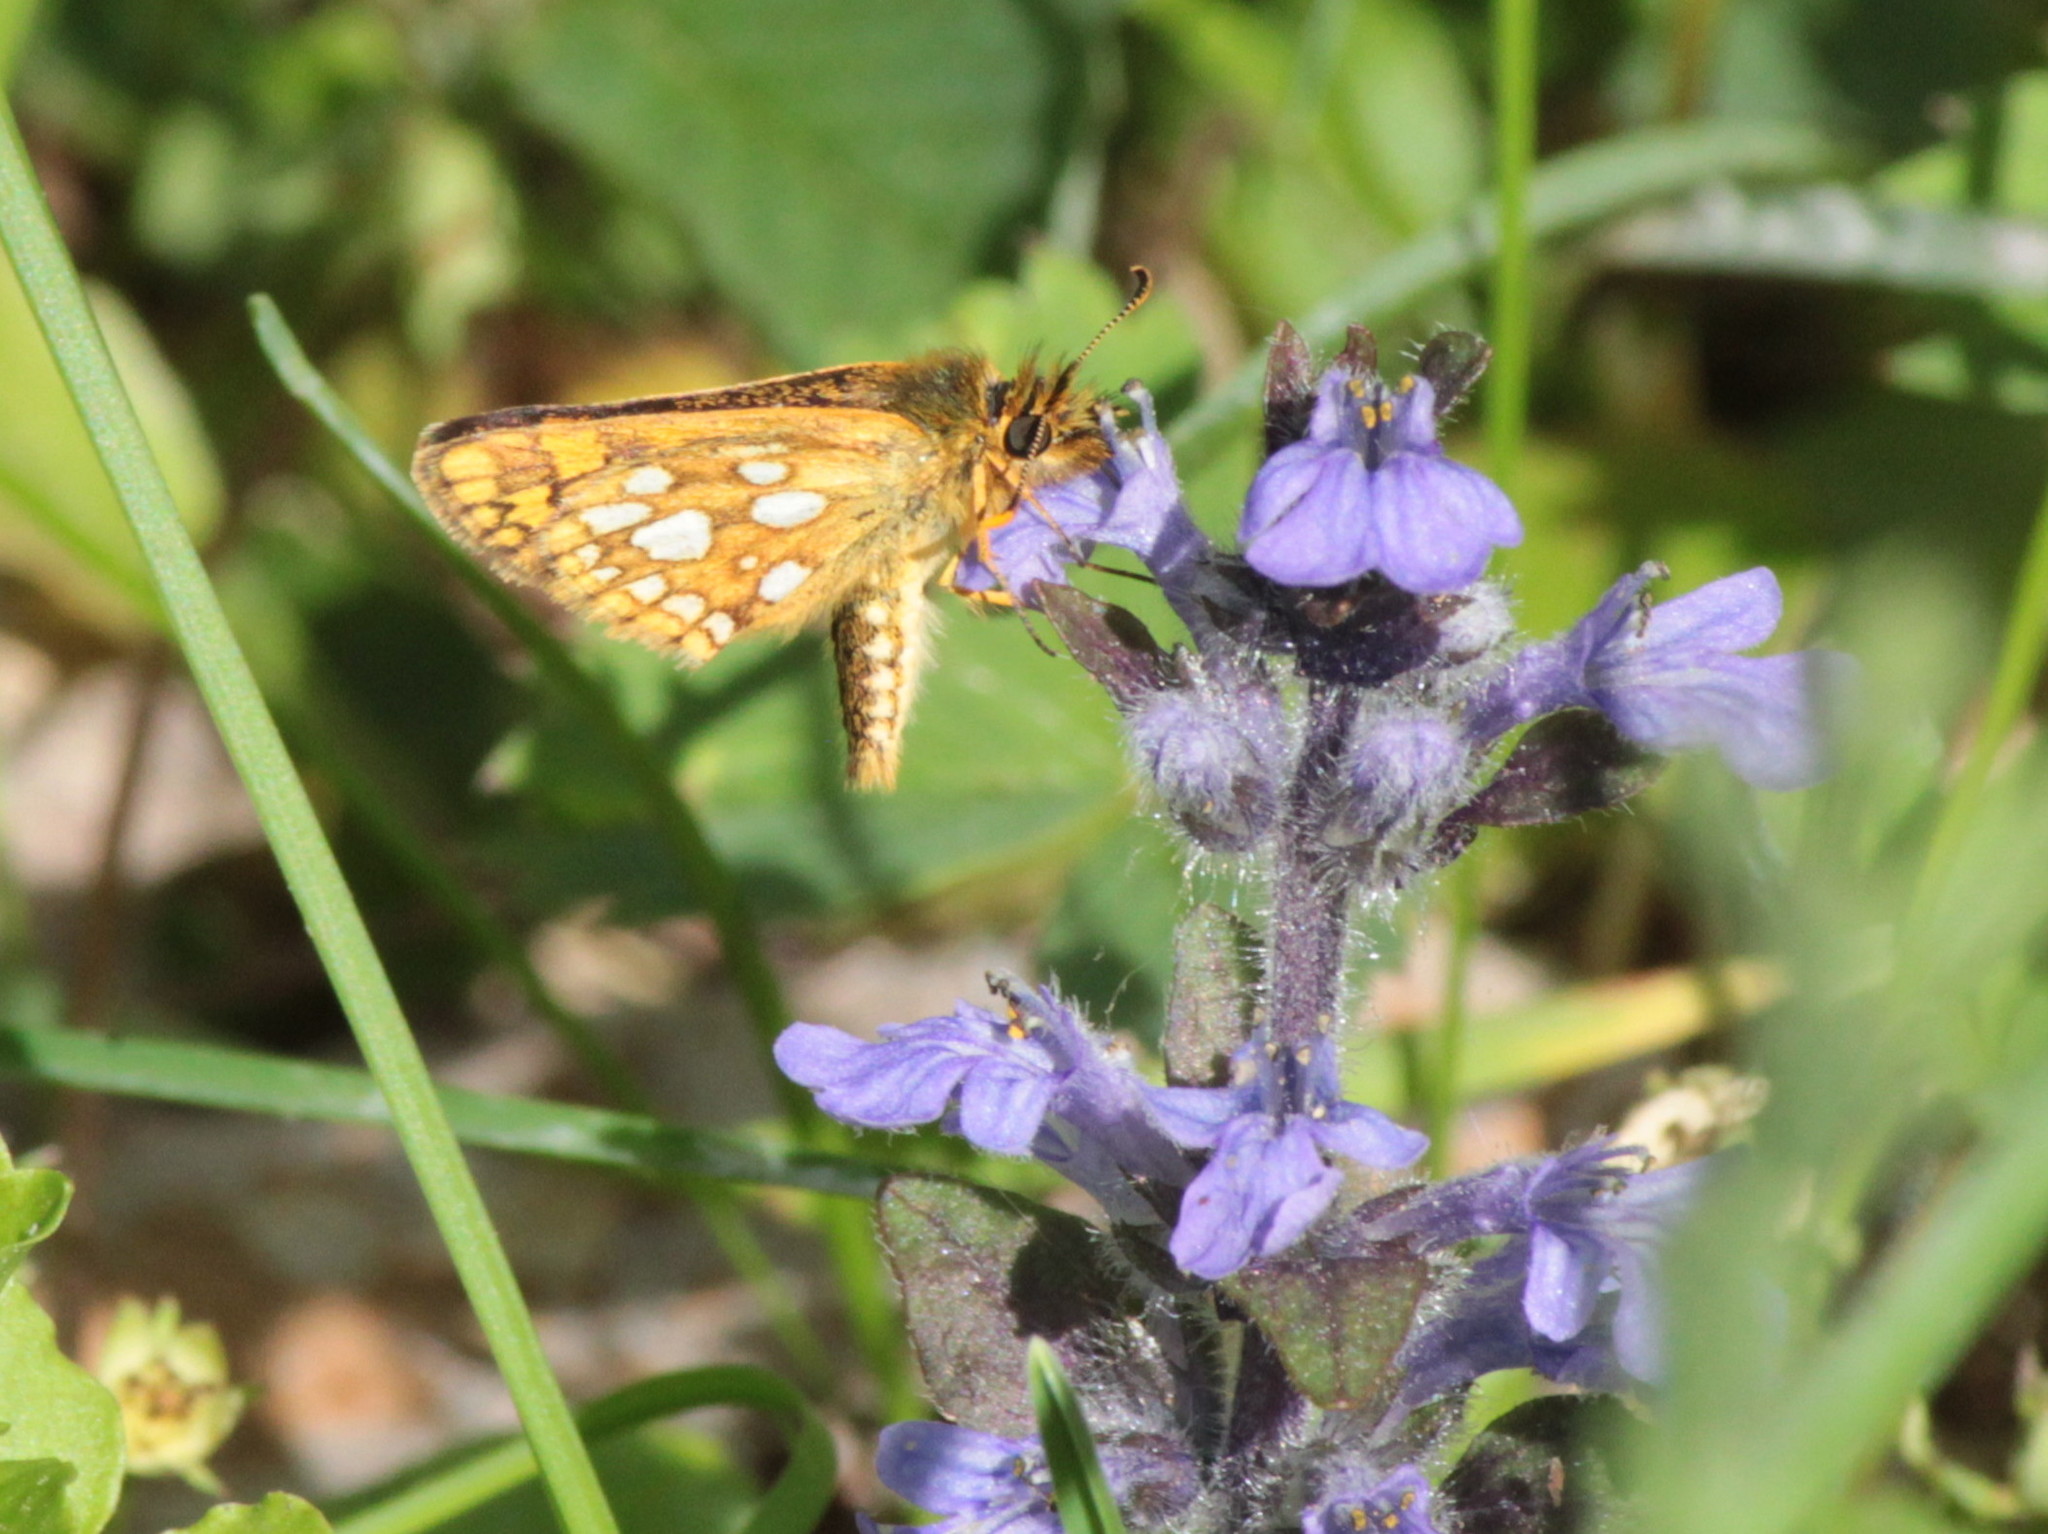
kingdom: Animalia
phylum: Arthropoda
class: Insecta
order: Lepidoptera
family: Hesperiidae
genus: Carterocephalus
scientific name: Carterocephalus mandan
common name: Arctic skipperling
